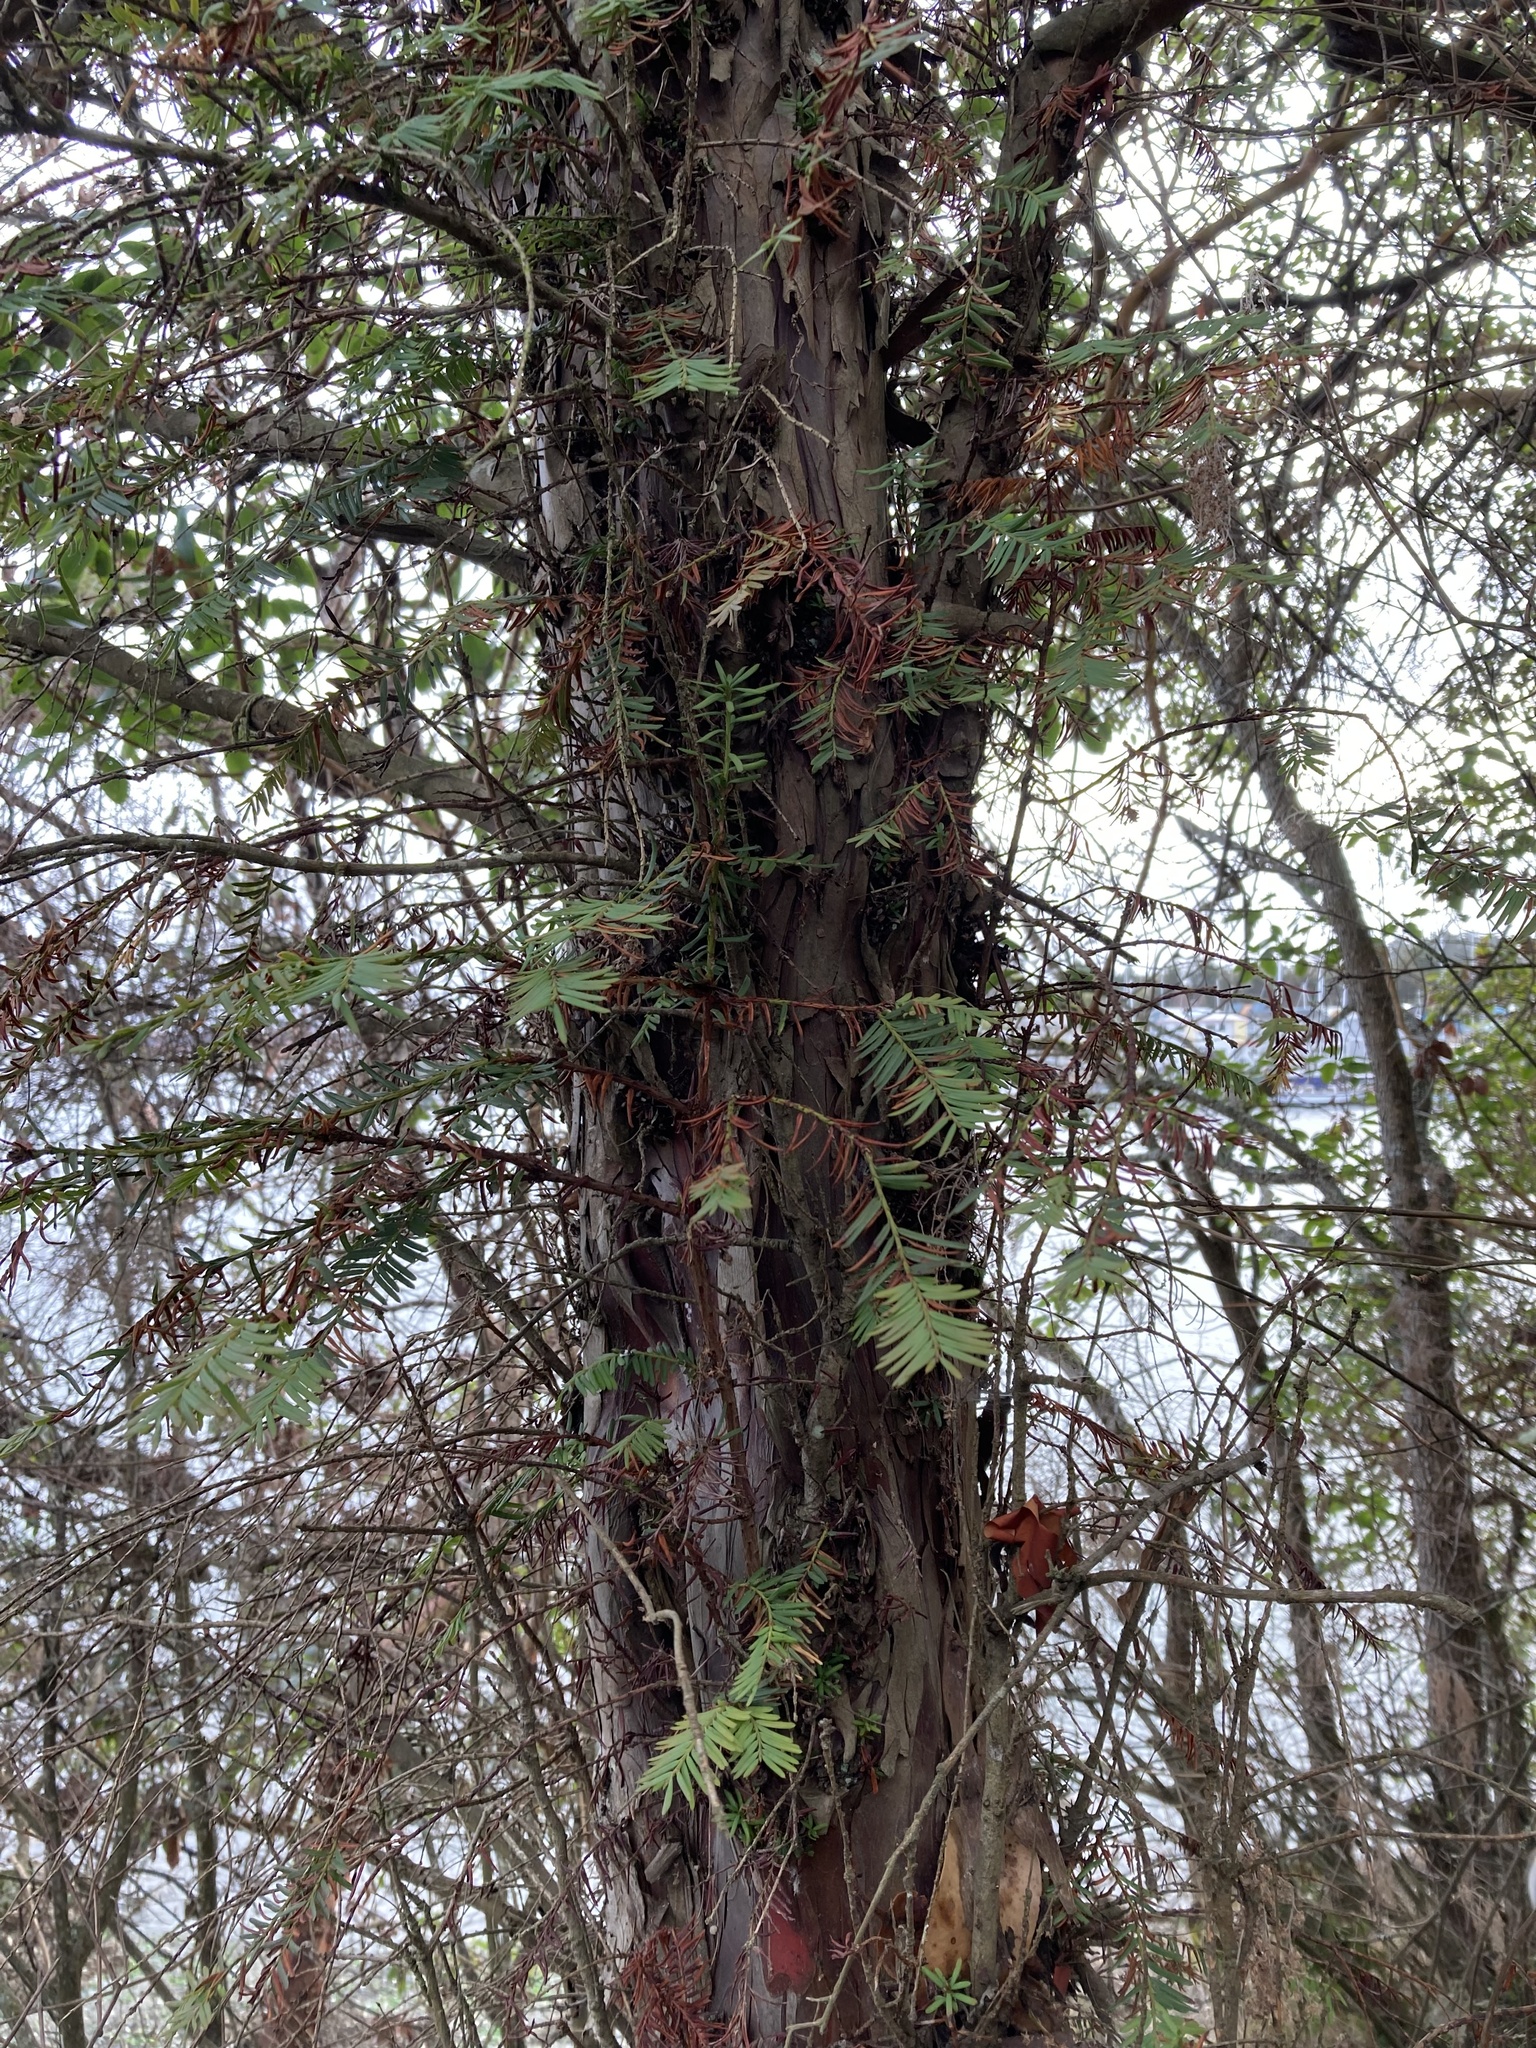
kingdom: Plantae
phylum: Tracheophyta
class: Pinopsida
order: Pinales
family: Taxaceae
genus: Taxus
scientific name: Taxus brevifolia
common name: Pacific yew
